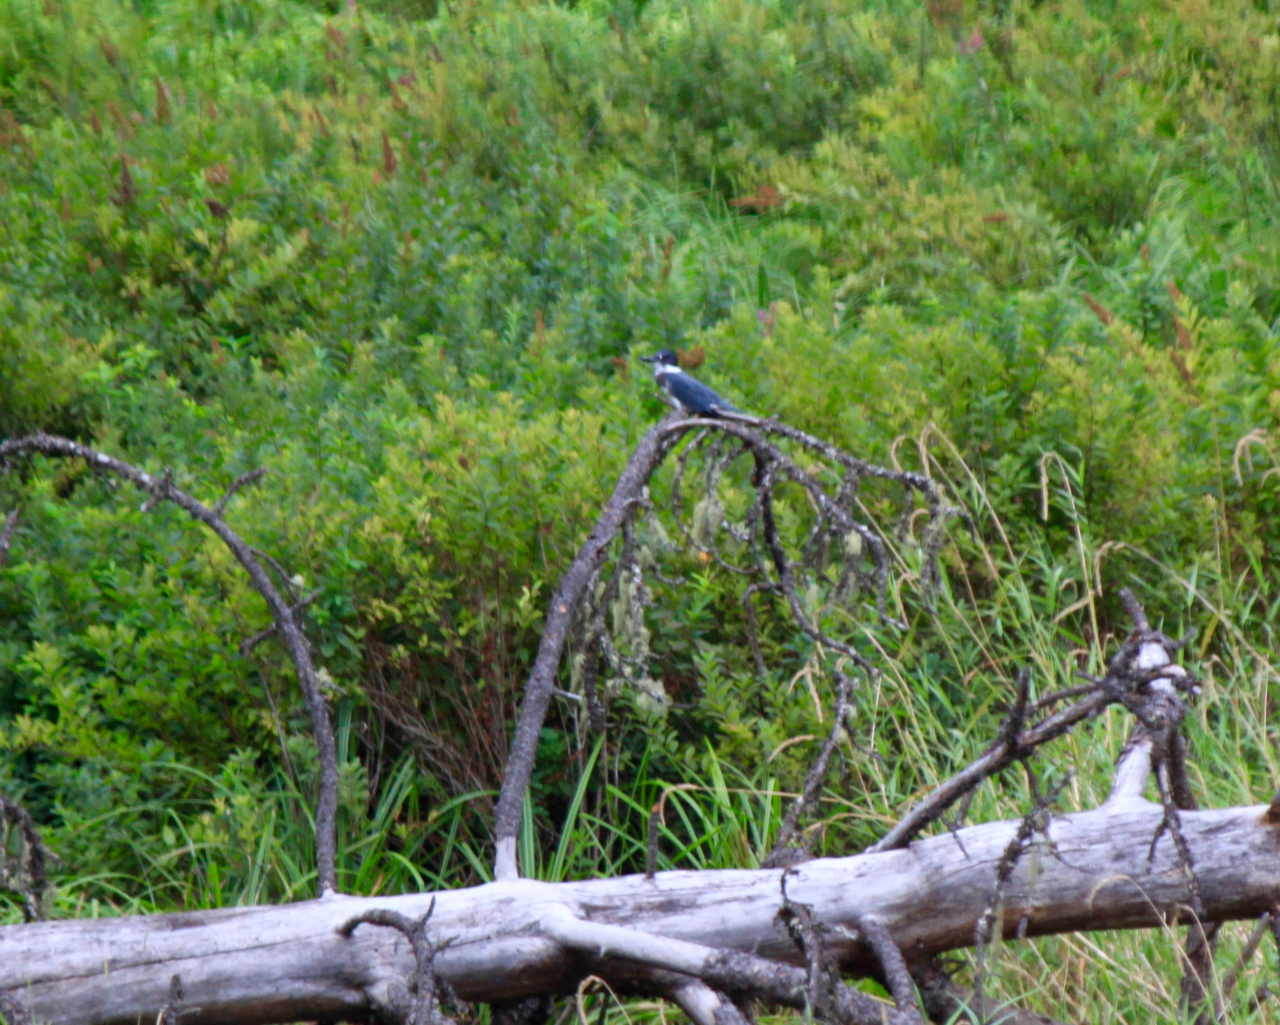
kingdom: Animalia
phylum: Chordata
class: Aves
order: Coraciiformes
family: Alcedinidae
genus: Megaceryle
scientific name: Megaceryle alcyon
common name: Belted kingfisher
